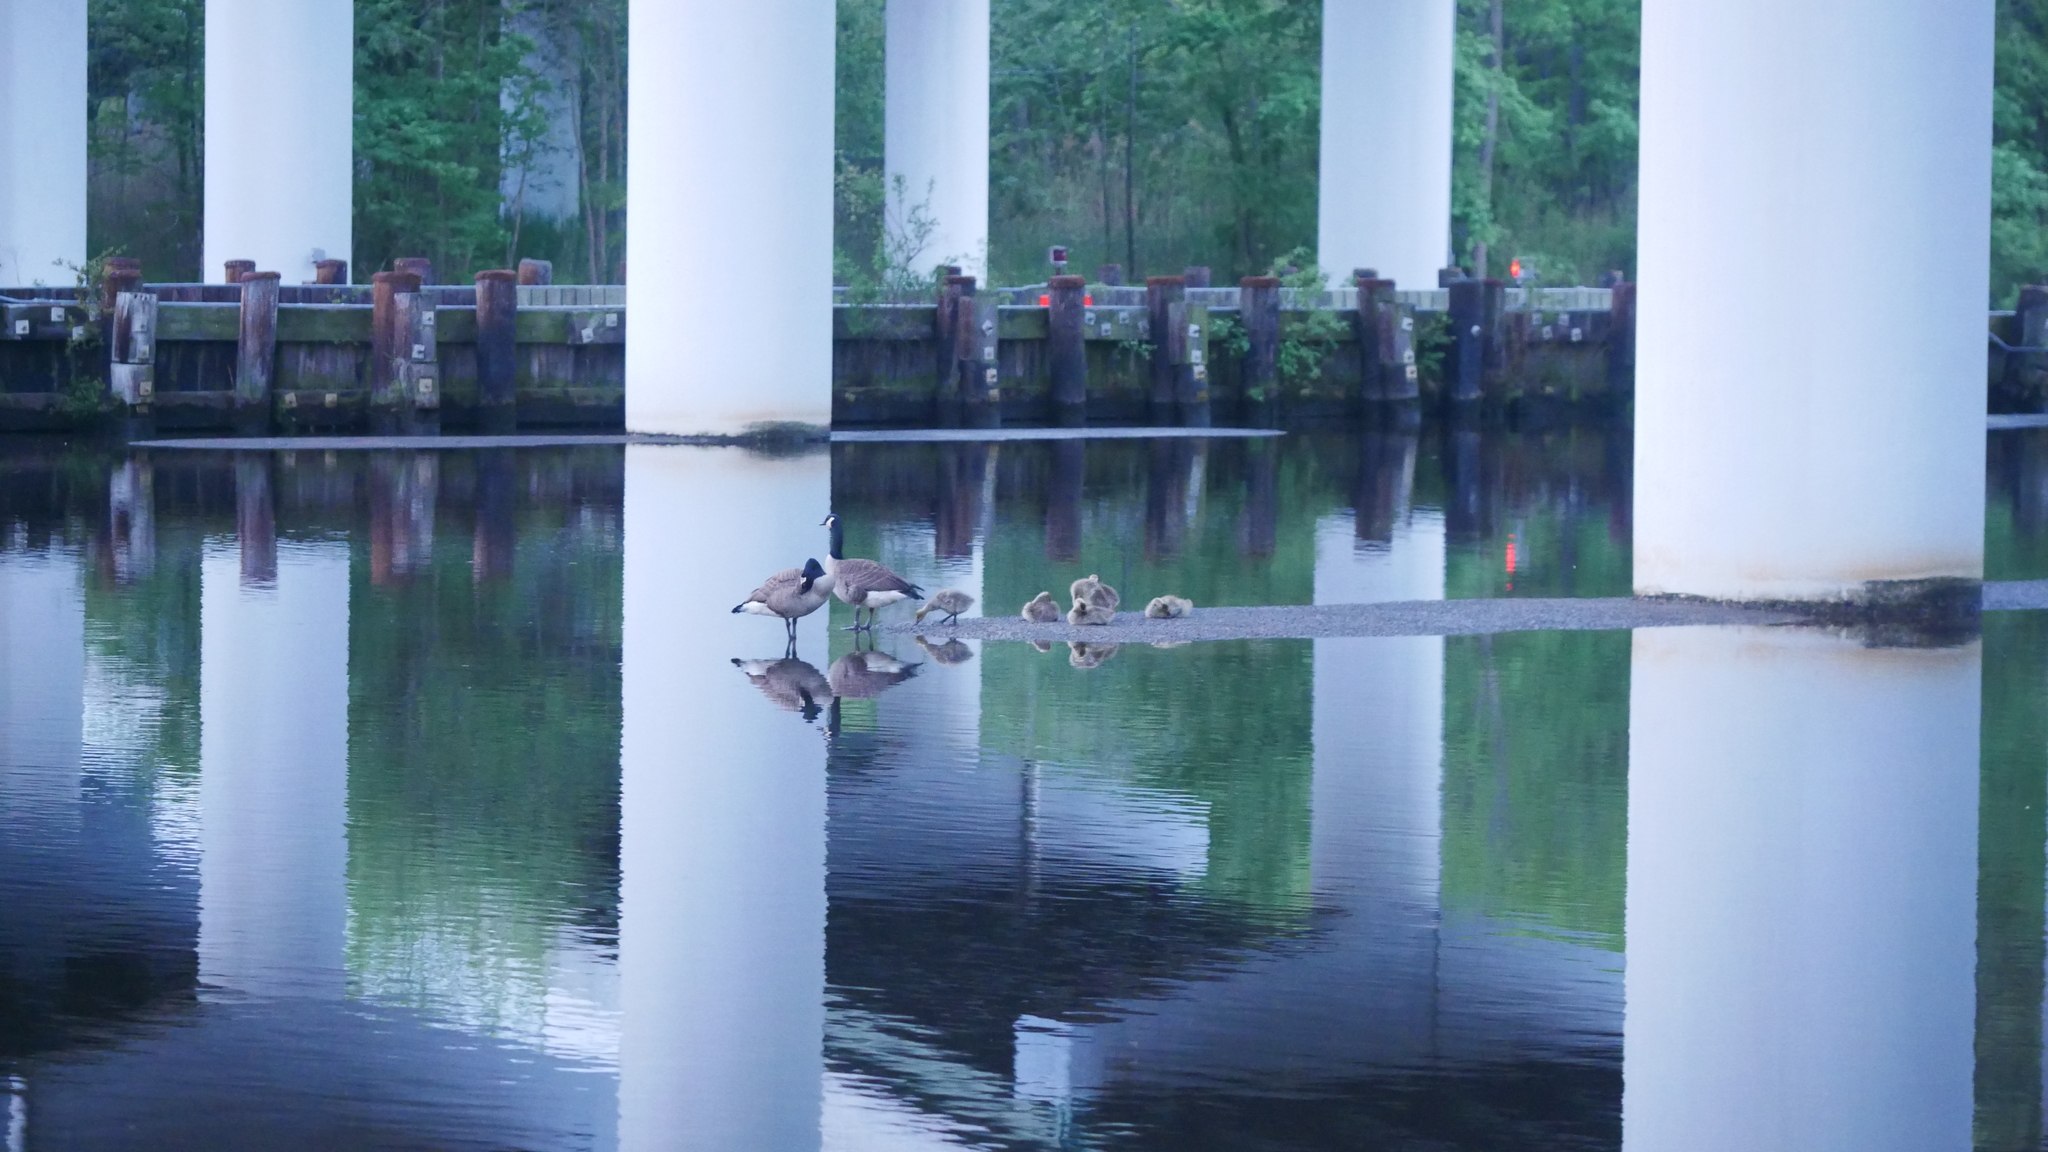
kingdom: Animalia
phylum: Chordata
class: Aves
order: Anseriformes
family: Anatidae
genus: Branta
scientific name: Branta canadensis
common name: Canada goose
